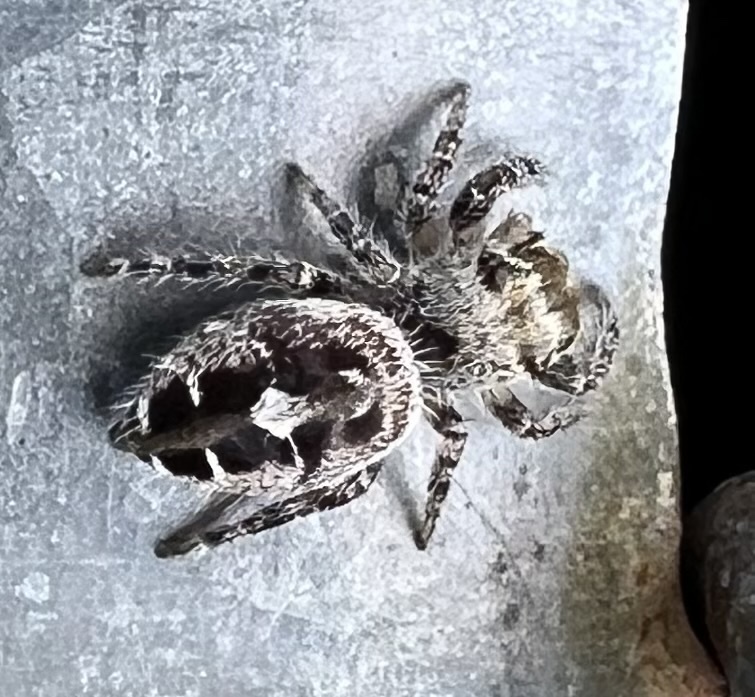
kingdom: Animalia
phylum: Arthropoda
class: Arachnida
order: Araneae
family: Salticidae
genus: Phidippus
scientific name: Phidippus carolinensis
